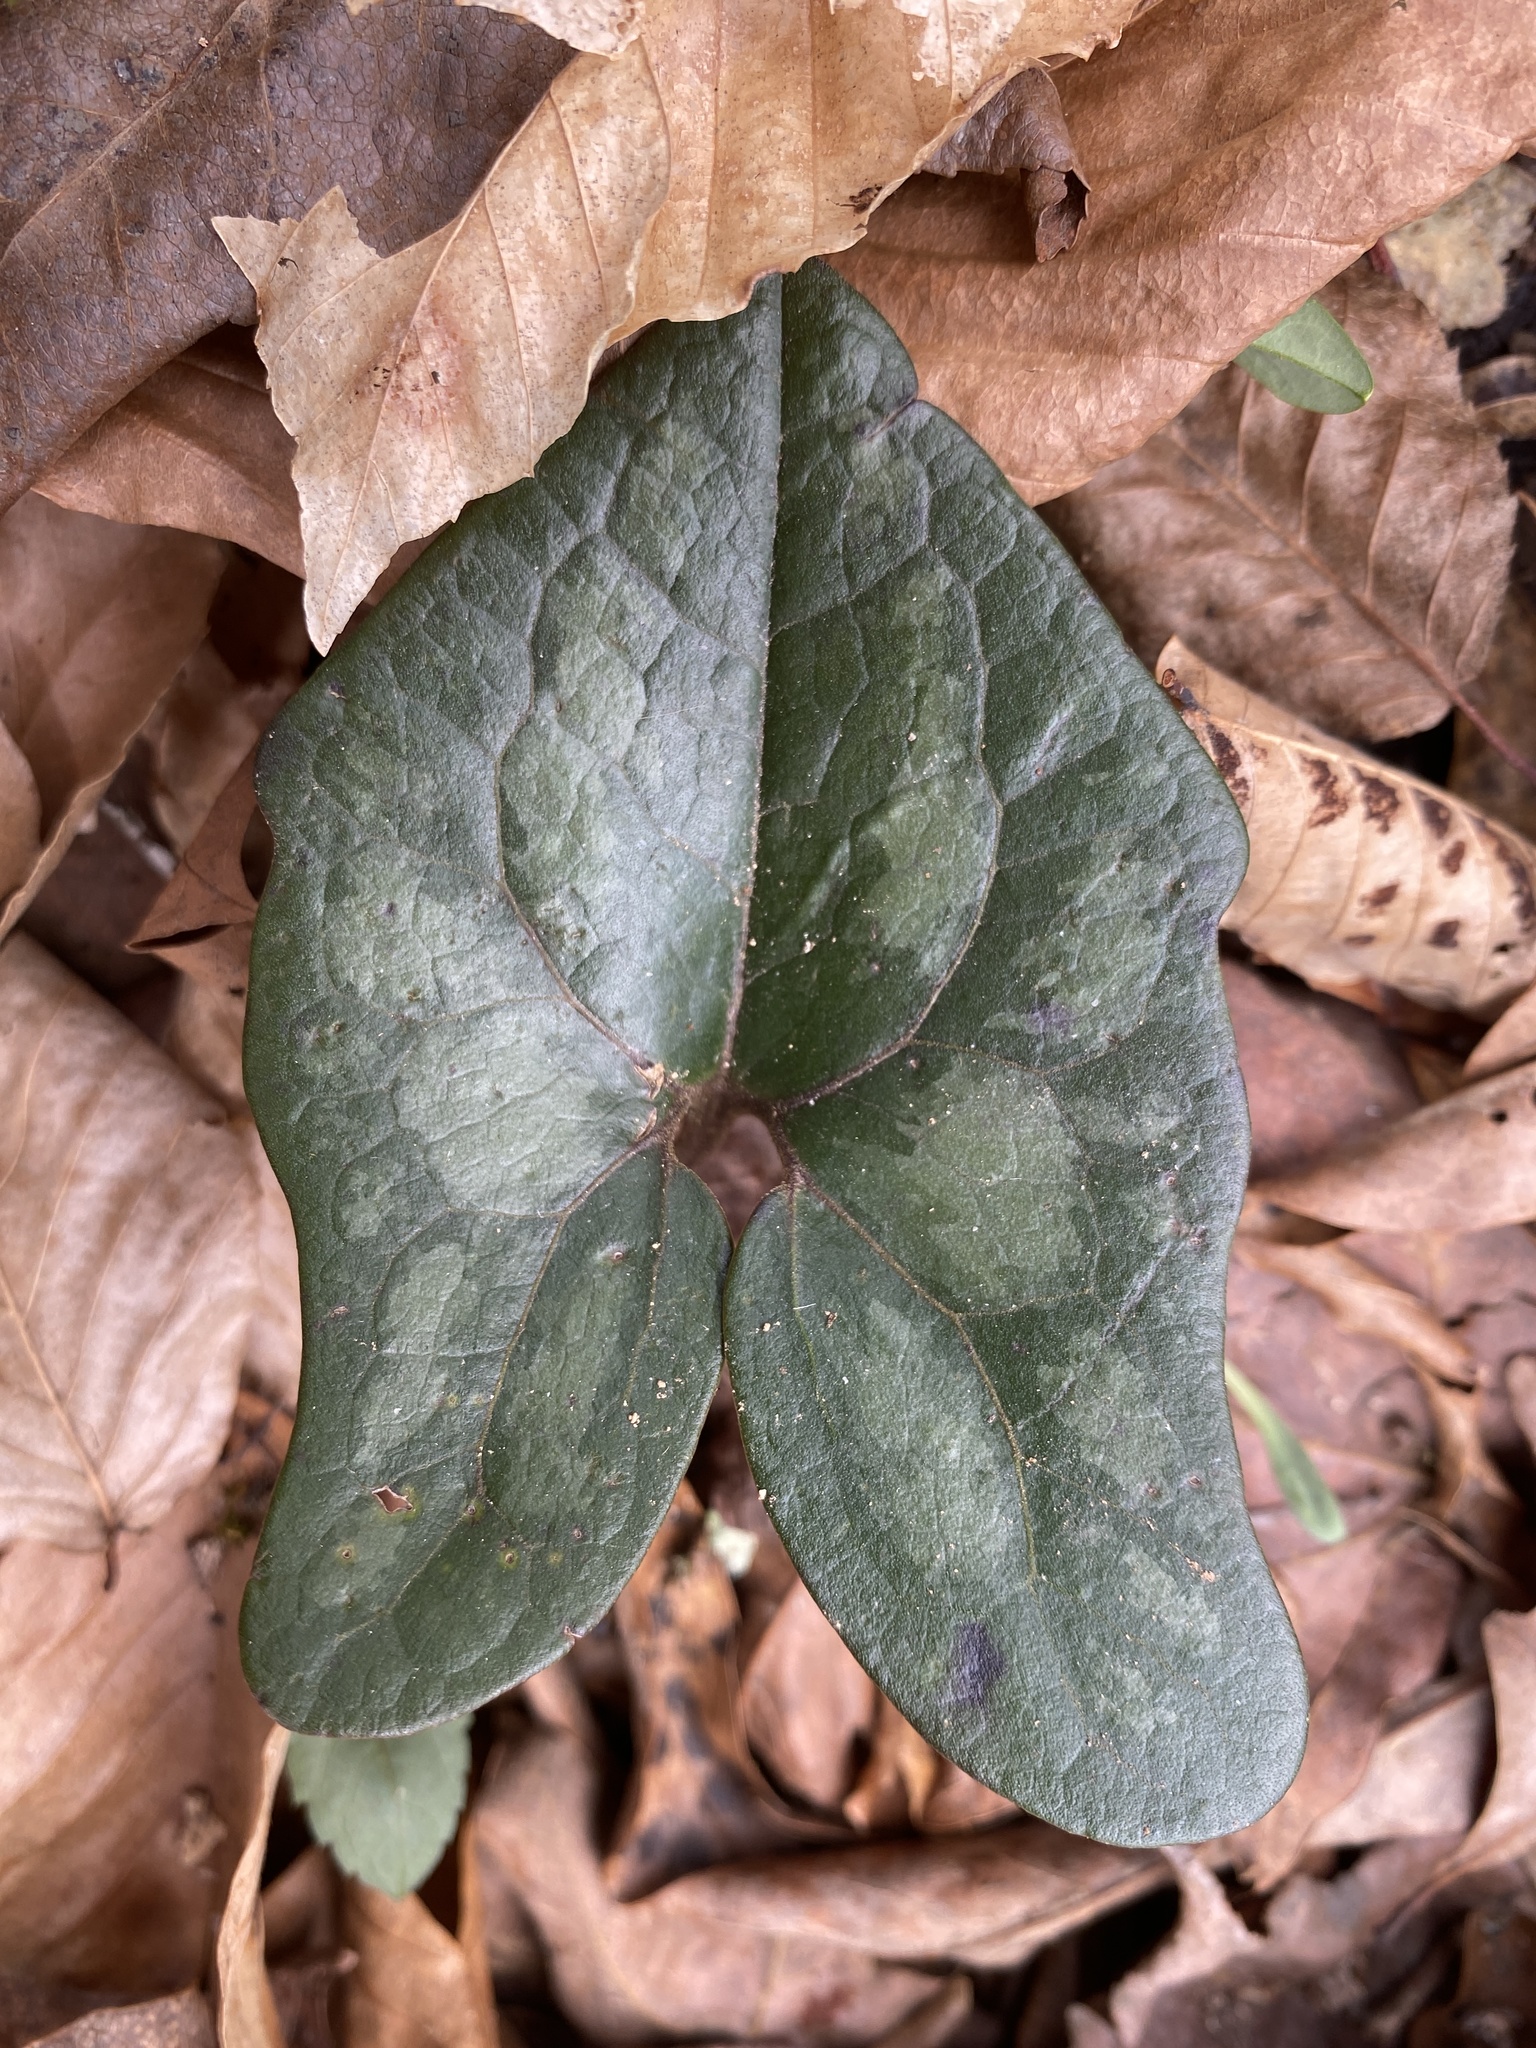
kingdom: Plantae
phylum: Tracheophyta
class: Magnoliopsida
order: Piperales
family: Aristolochiaceae
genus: Hexastylis
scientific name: Hexastylis arifolia
